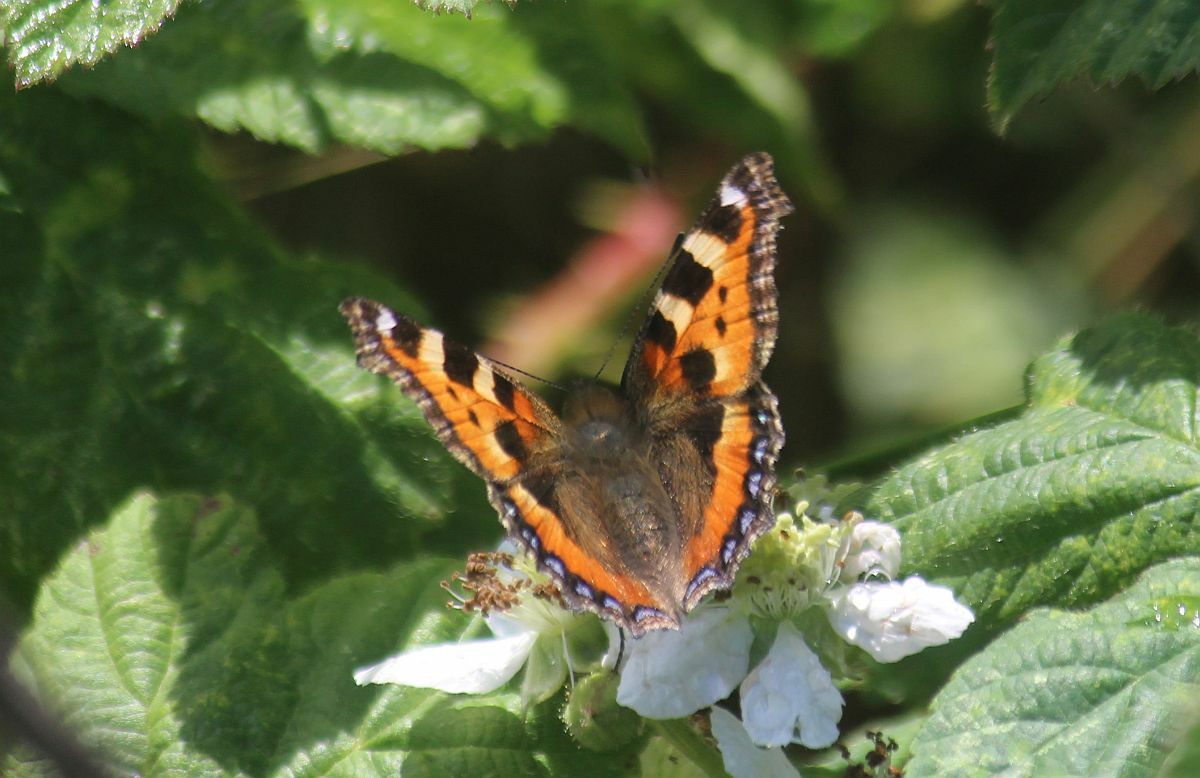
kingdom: Animalia
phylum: Arthropoda
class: Insecta
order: Lepidoptera
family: Nymphalidae
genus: Aglais
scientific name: Aglais urticae
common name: Small tortoiseshell
